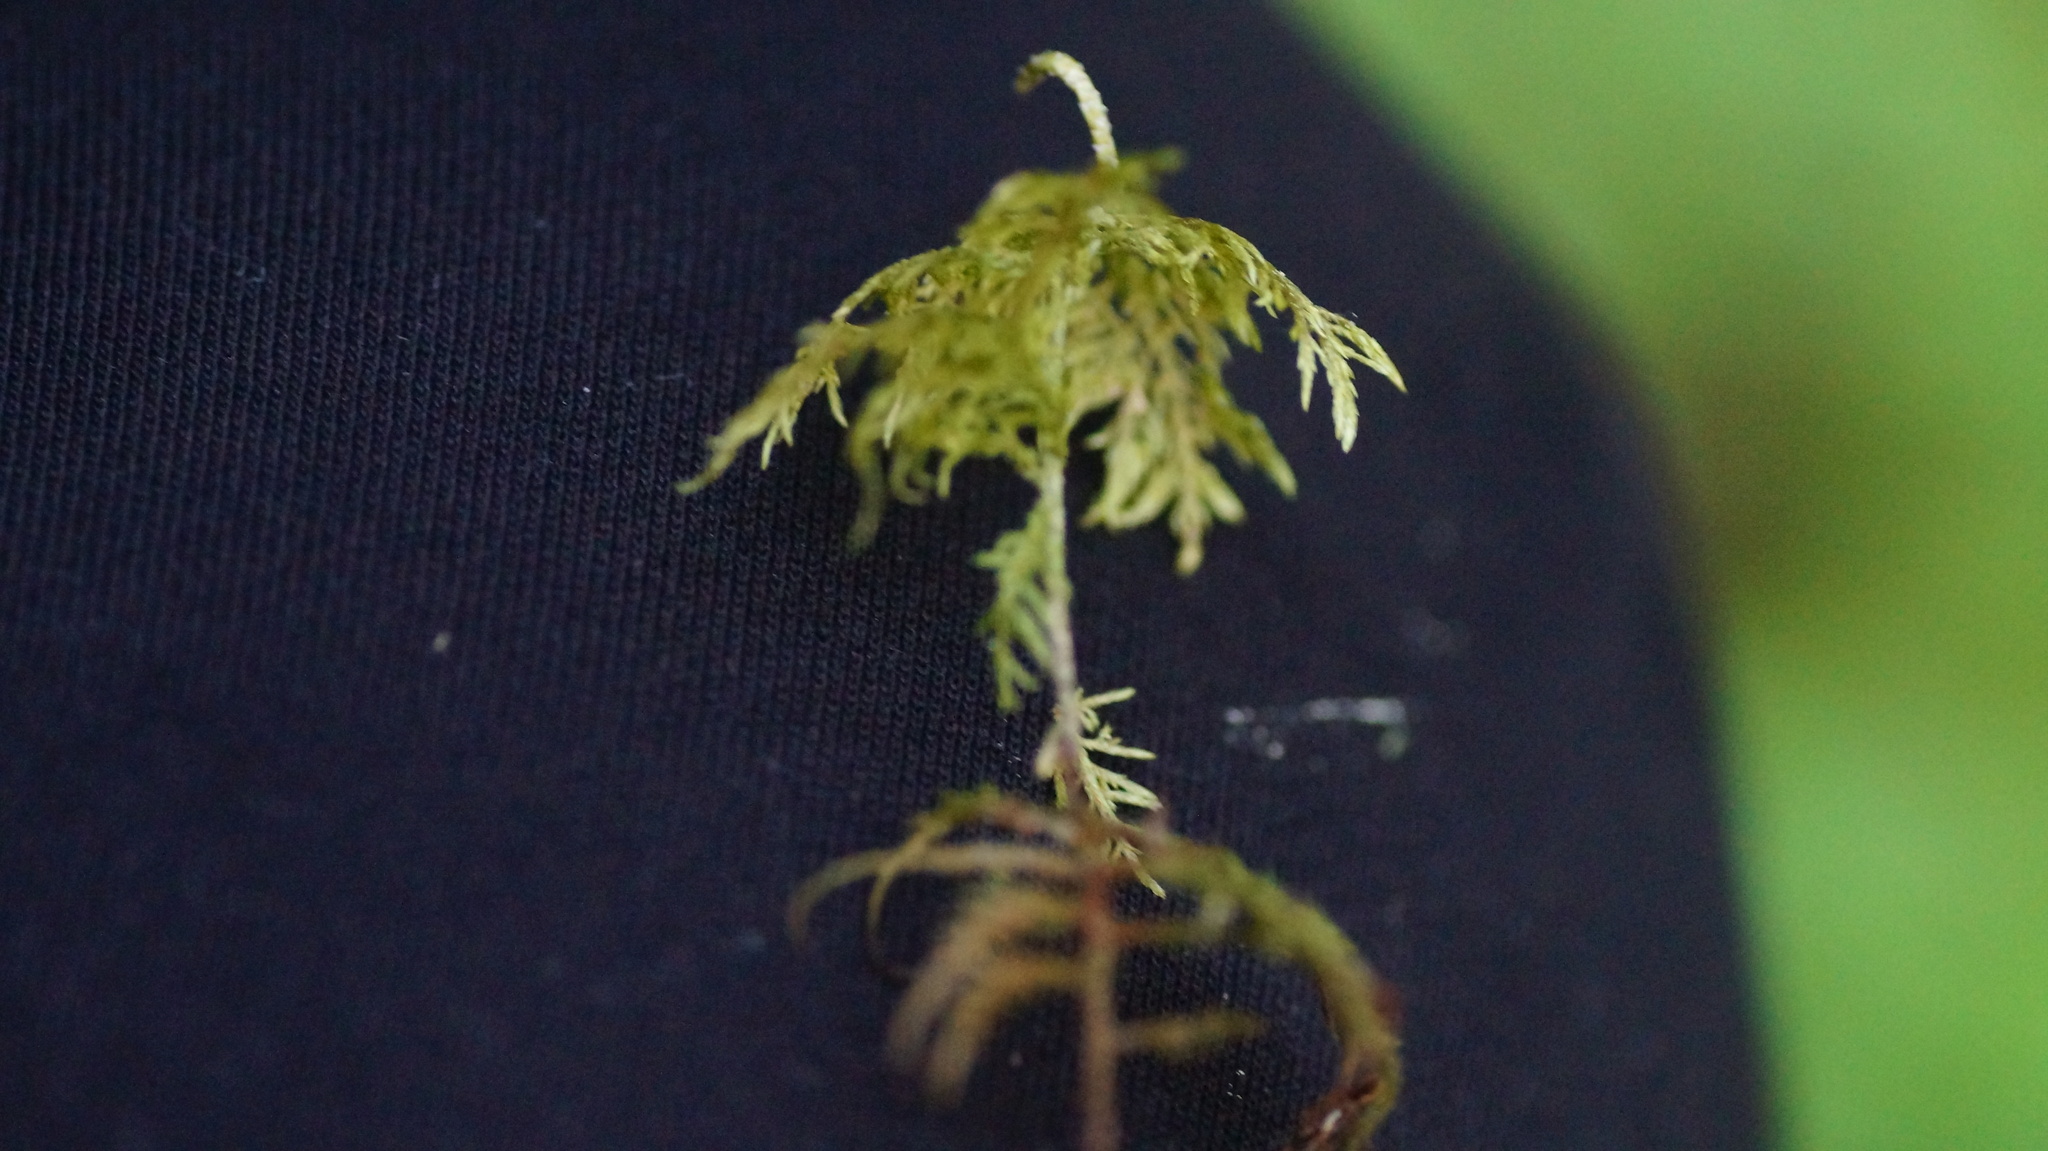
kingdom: Plantae
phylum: Bryophyta
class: Bryopsida
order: Hypnales
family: Hylocomiaceae
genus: Hylocomium
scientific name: Hylocomium splendens
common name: Stairstep moss
